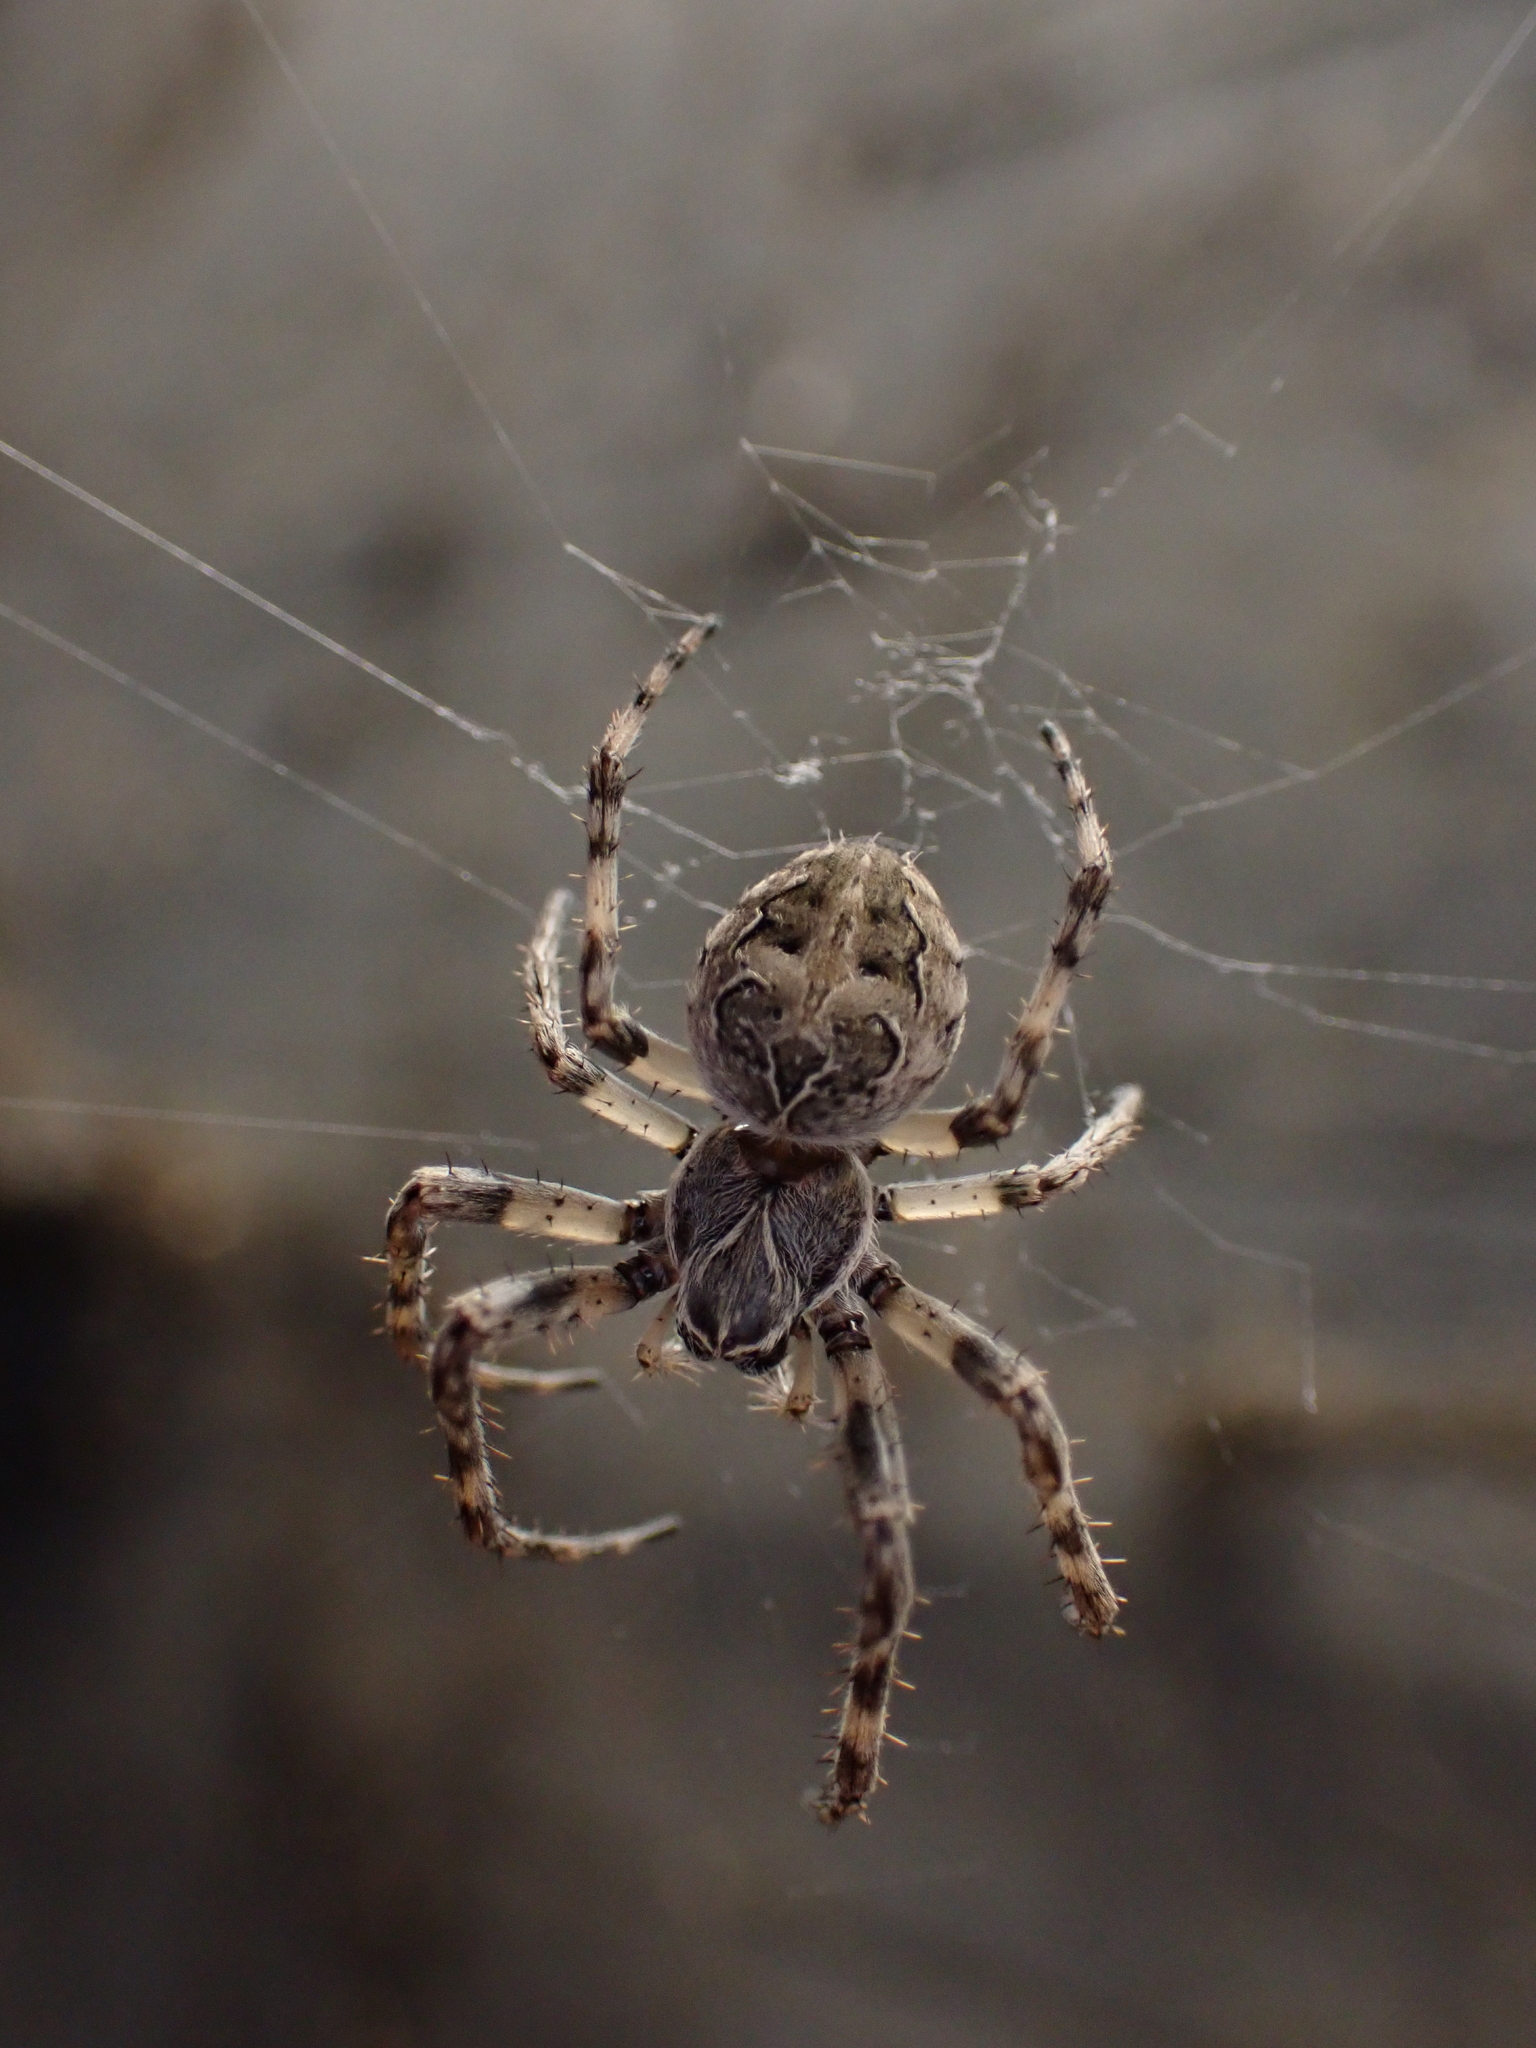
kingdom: Animalia
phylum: Arthropoda
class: Arachnida
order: Araneae
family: Araneidae
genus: Larinioides
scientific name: Larinioides sclopetarius
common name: Bridge orbweaver
